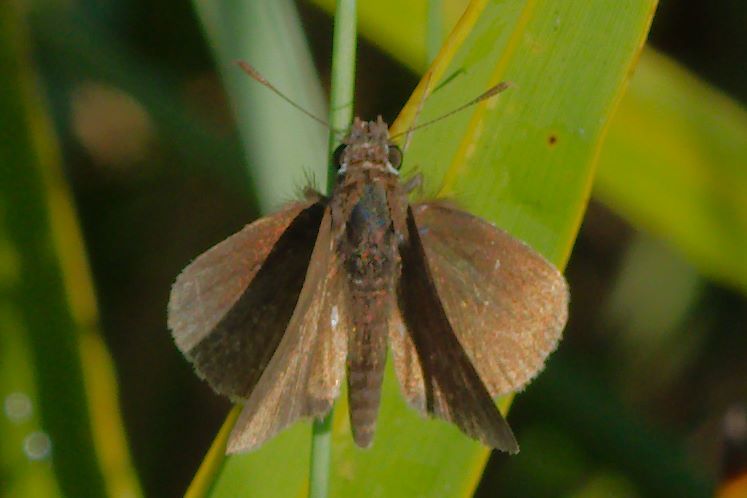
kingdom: Animalia
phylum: Arthropoda
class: Insecta
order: Lepidoptera
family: Hesperiidae
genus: Nastra
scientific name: Nastra lherminier
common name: Swarthy skipper
